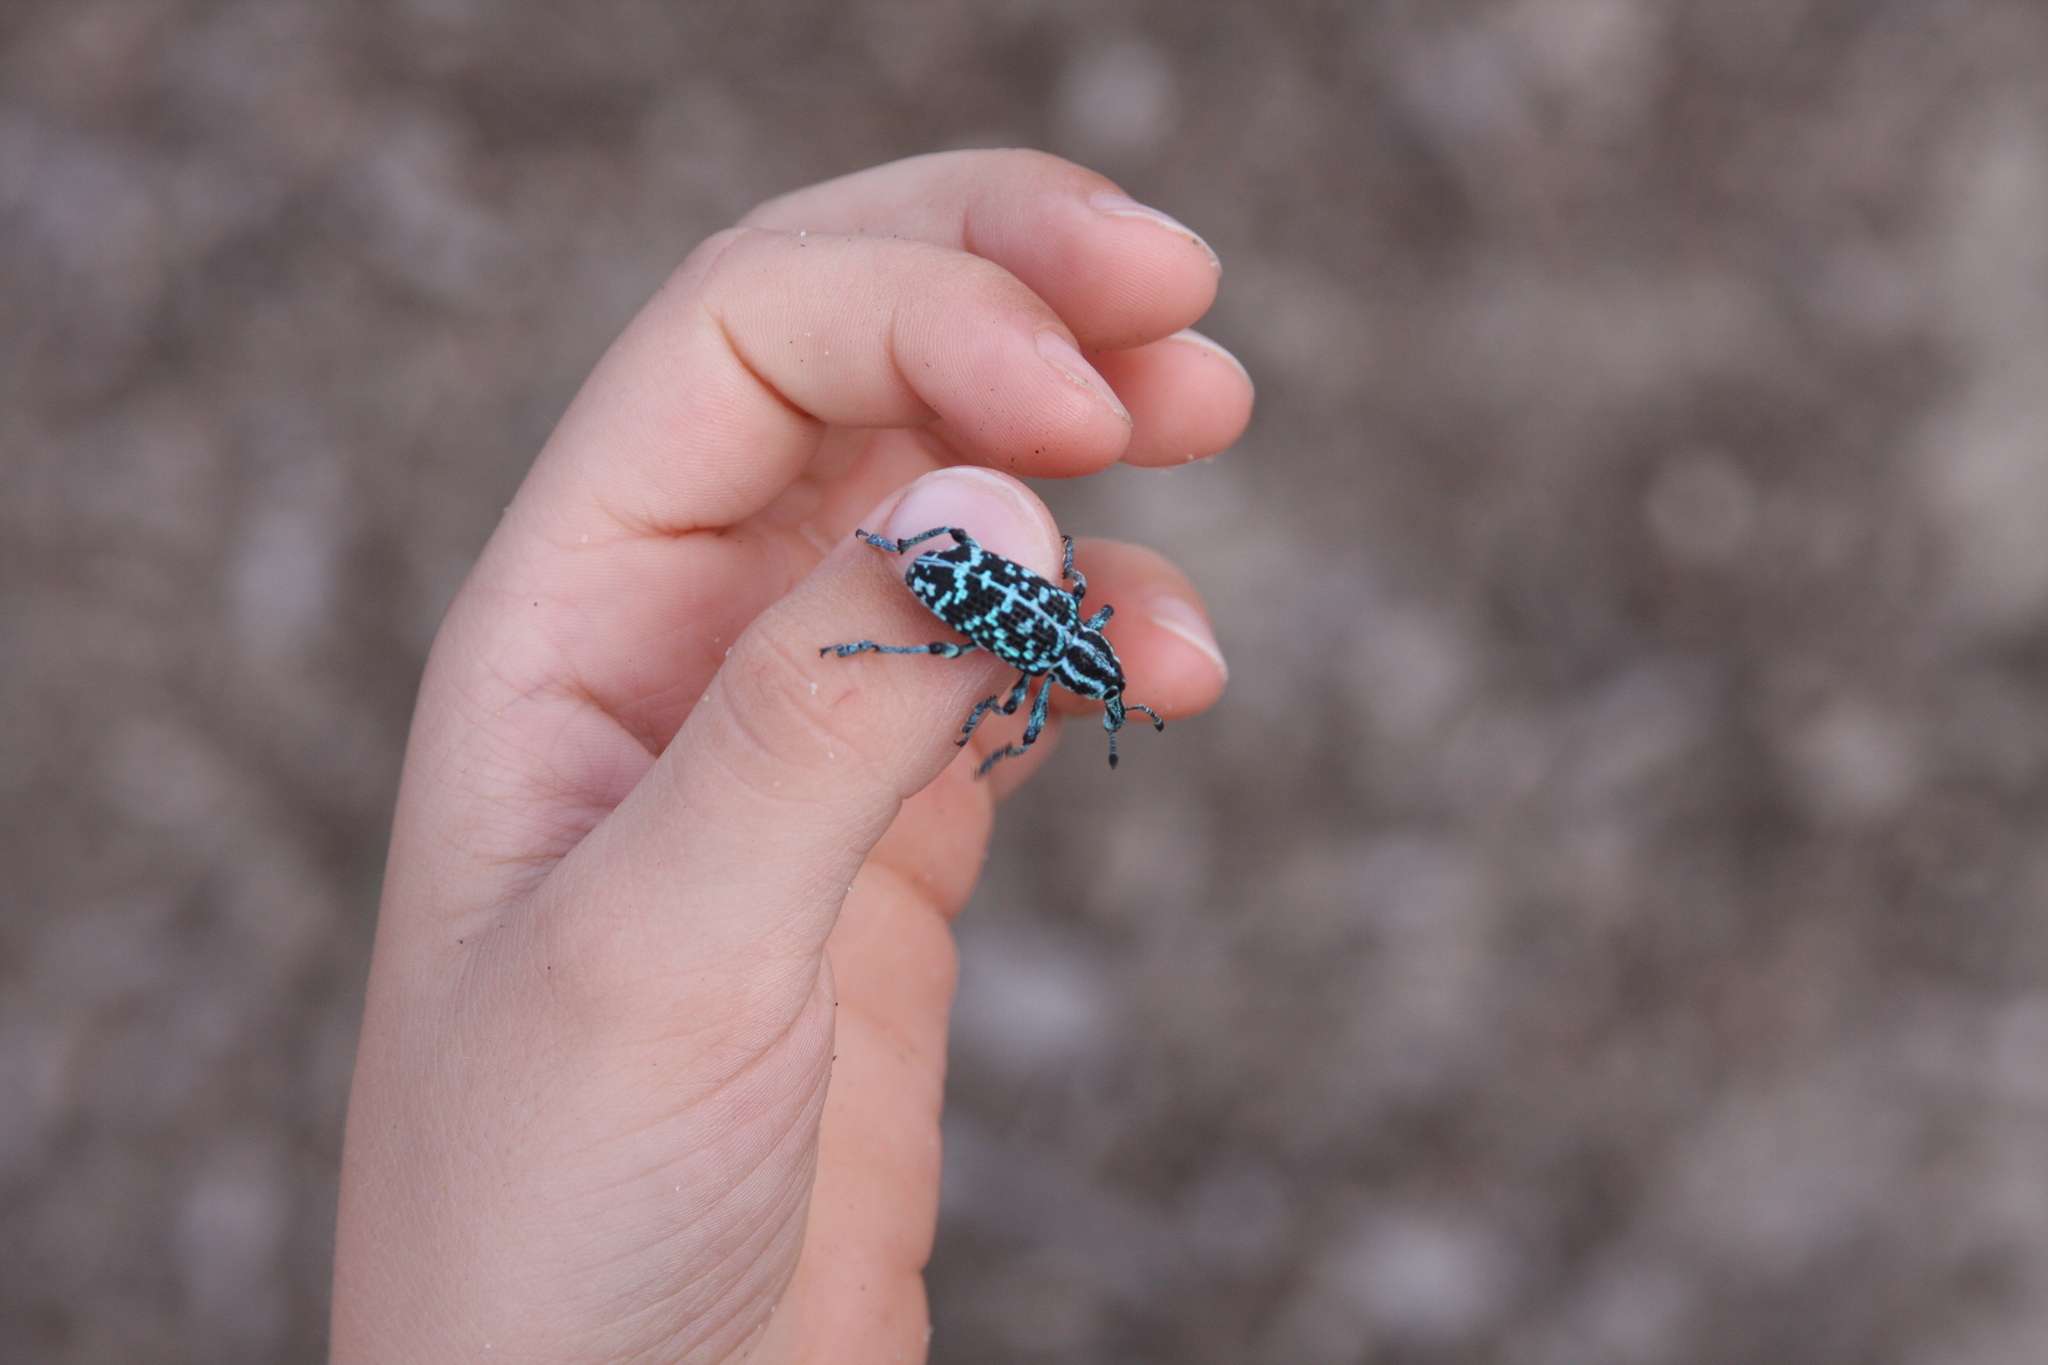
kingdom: Animalia
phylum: Arthropoda
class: Insecta
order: Coleoptera
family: Curculionidae
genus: Chrysolopus
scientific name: Chrysolopus spectabilis
